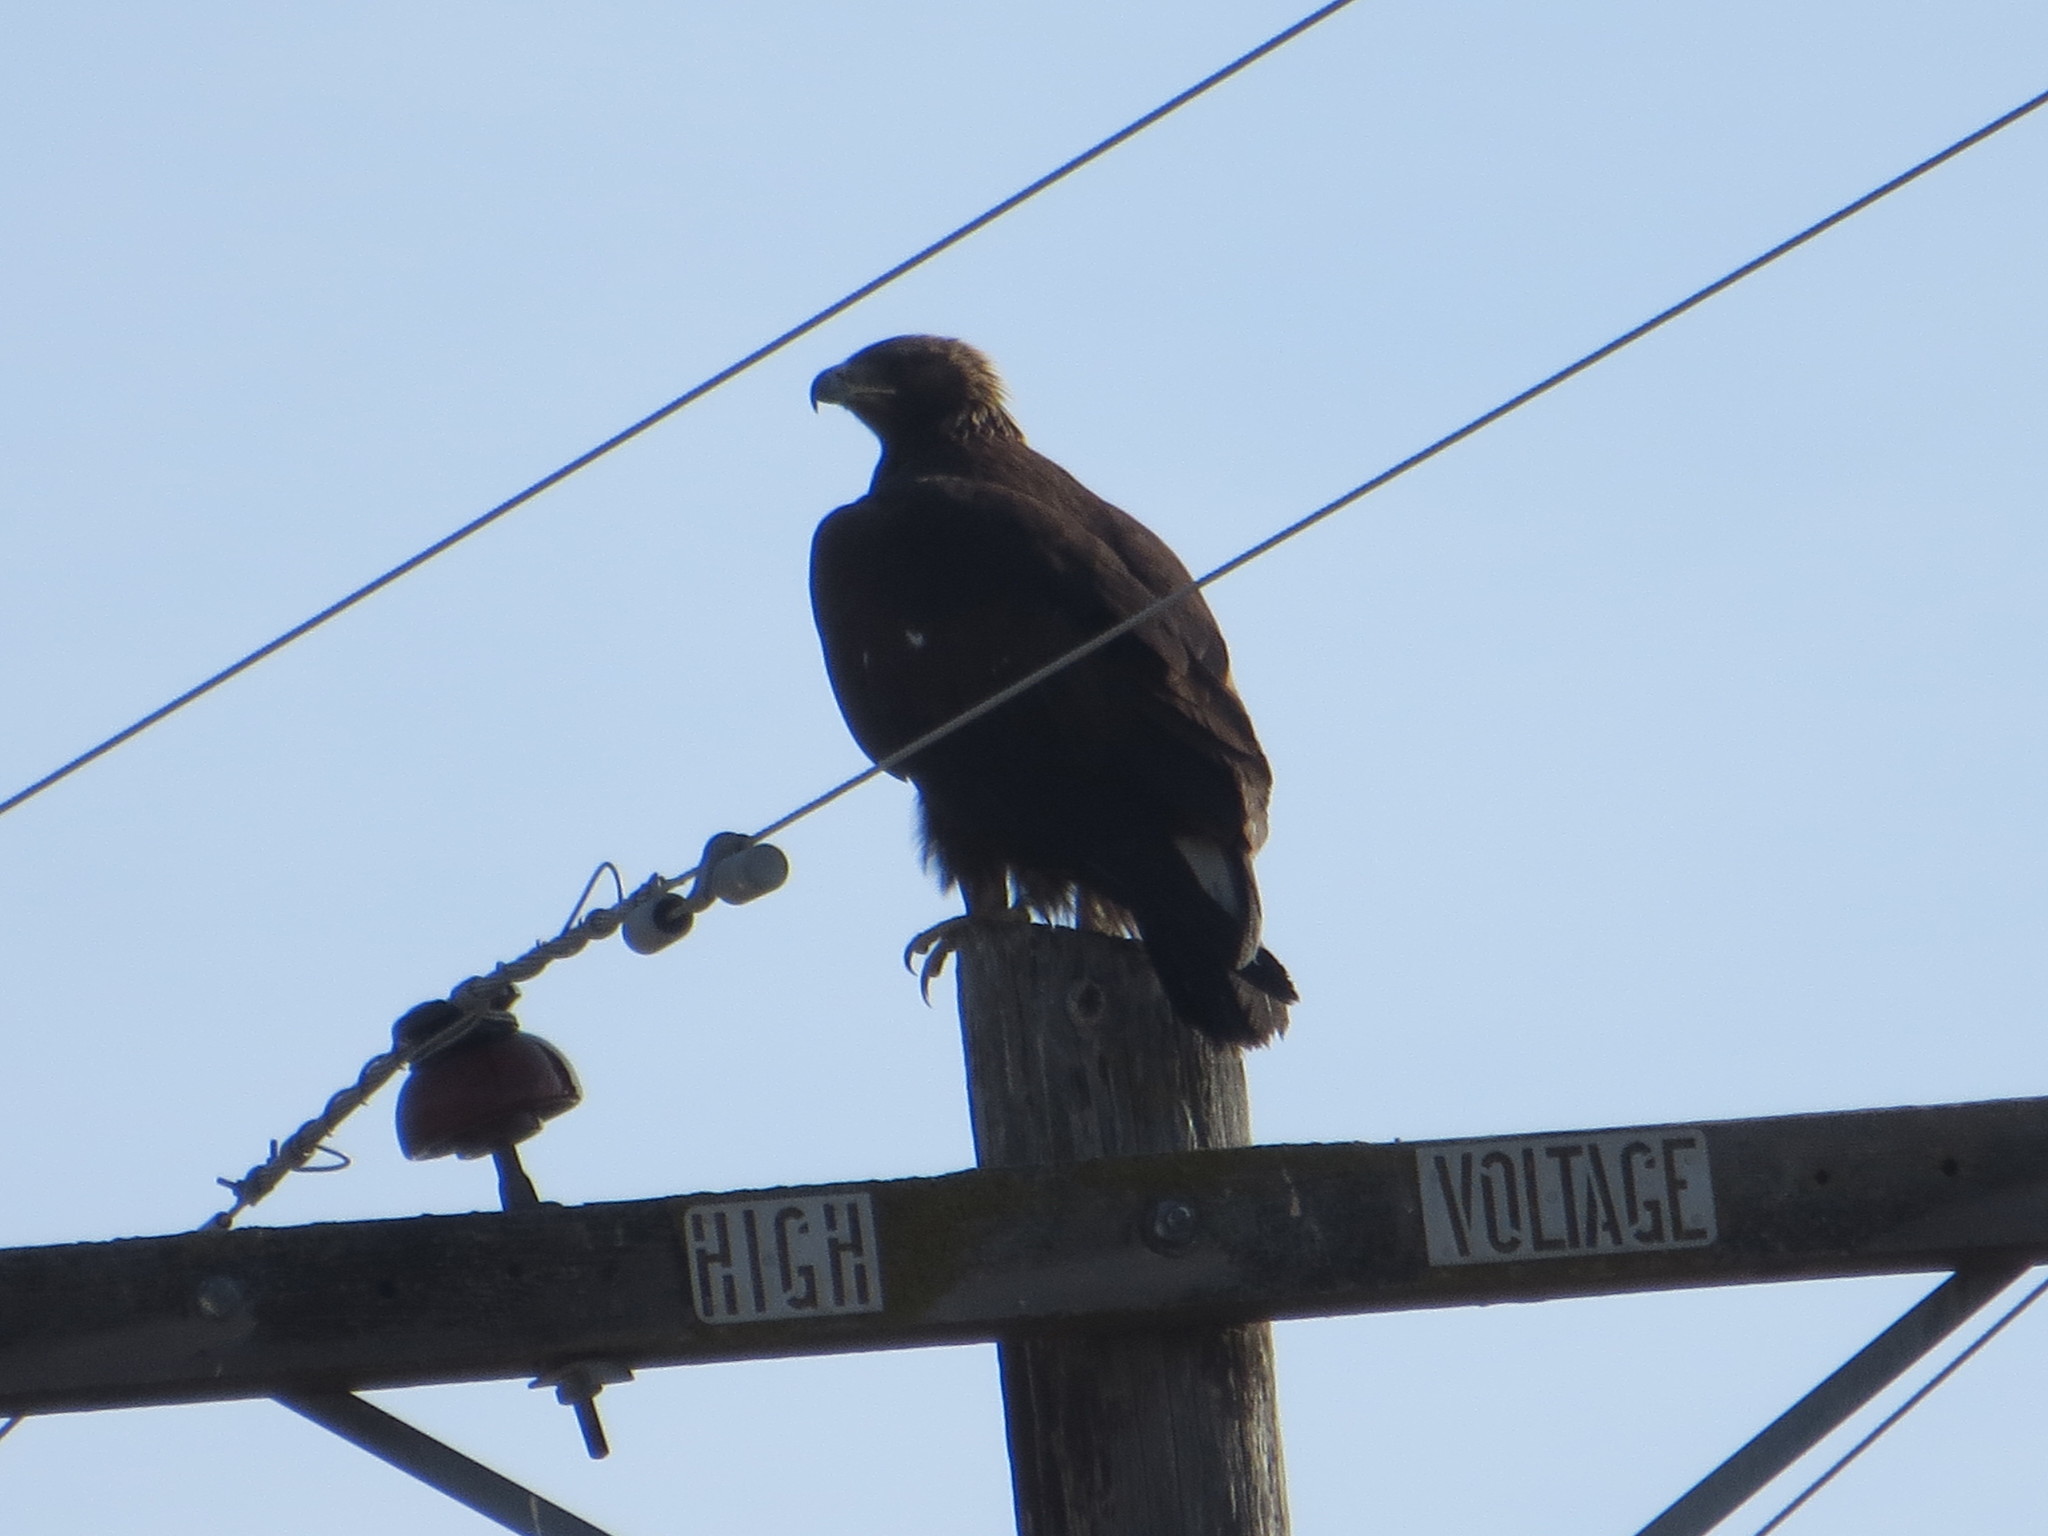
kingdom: Animalia
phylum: Chordata
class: Aves
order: Accipitriformes
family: Accipitridae
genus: Aquila
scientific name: Aquila chrysaetos
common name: Golden eagle
